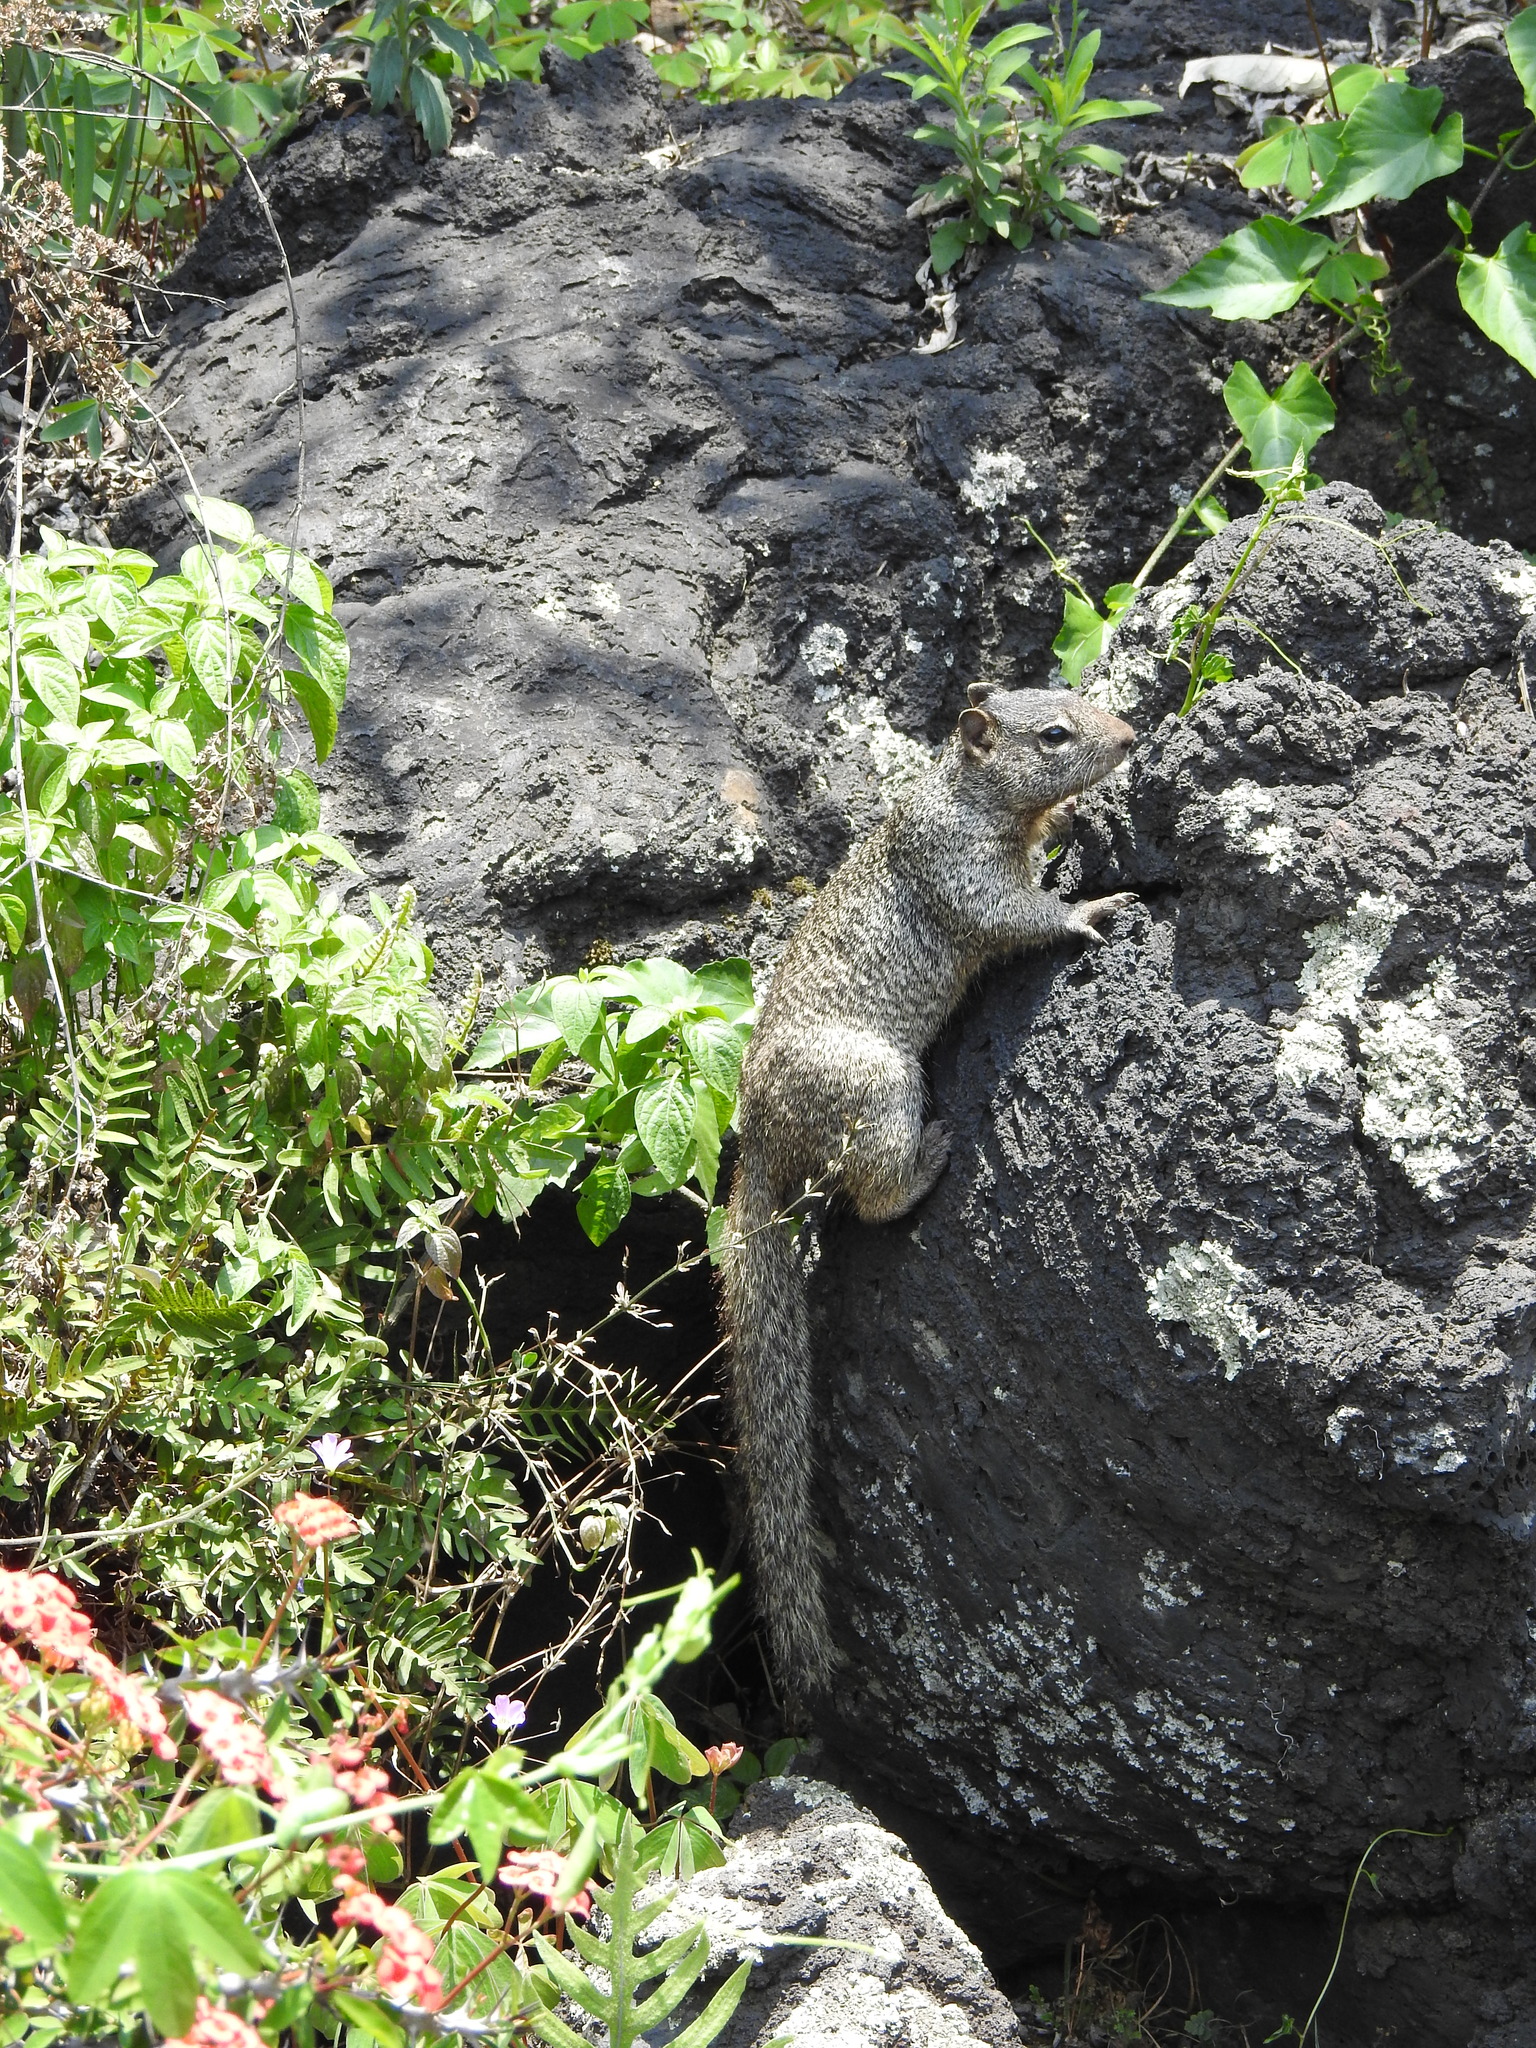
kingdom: Animalia
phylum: Chordata
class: Mammalia
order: Rodentia
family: Sciuridae
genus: Otospermophilus
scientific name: Otospermophilus variegatus
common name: Rock squirrel
